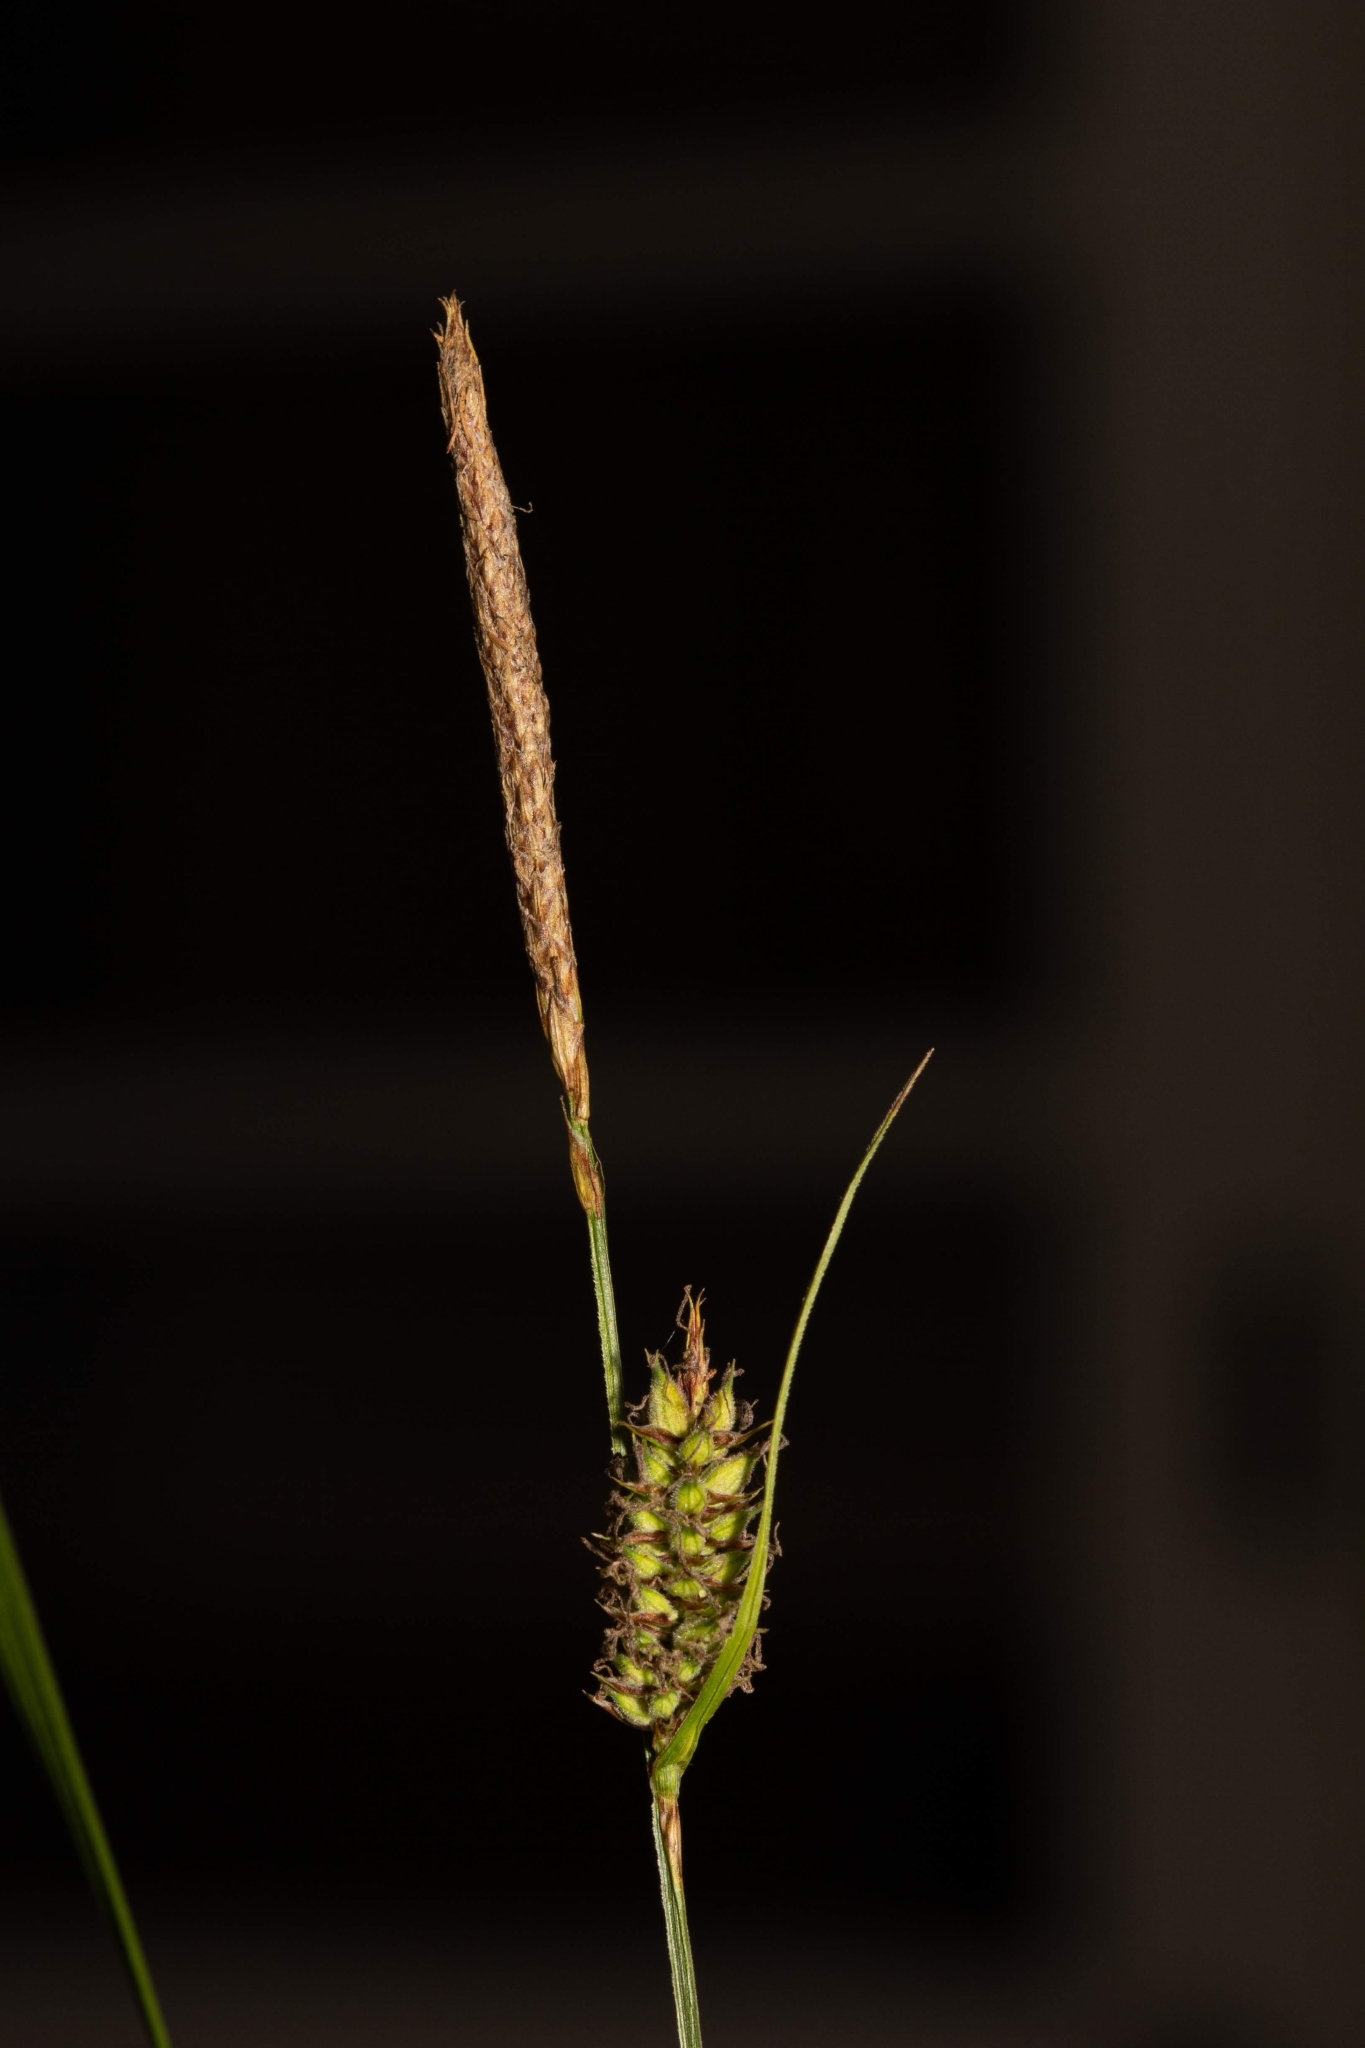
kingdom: Plantae
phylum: Tracheophyta
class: Liliopsida
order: Poales
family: Cyperaceae
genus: Carex
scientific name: Carex pellita
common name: Woolly sedge
